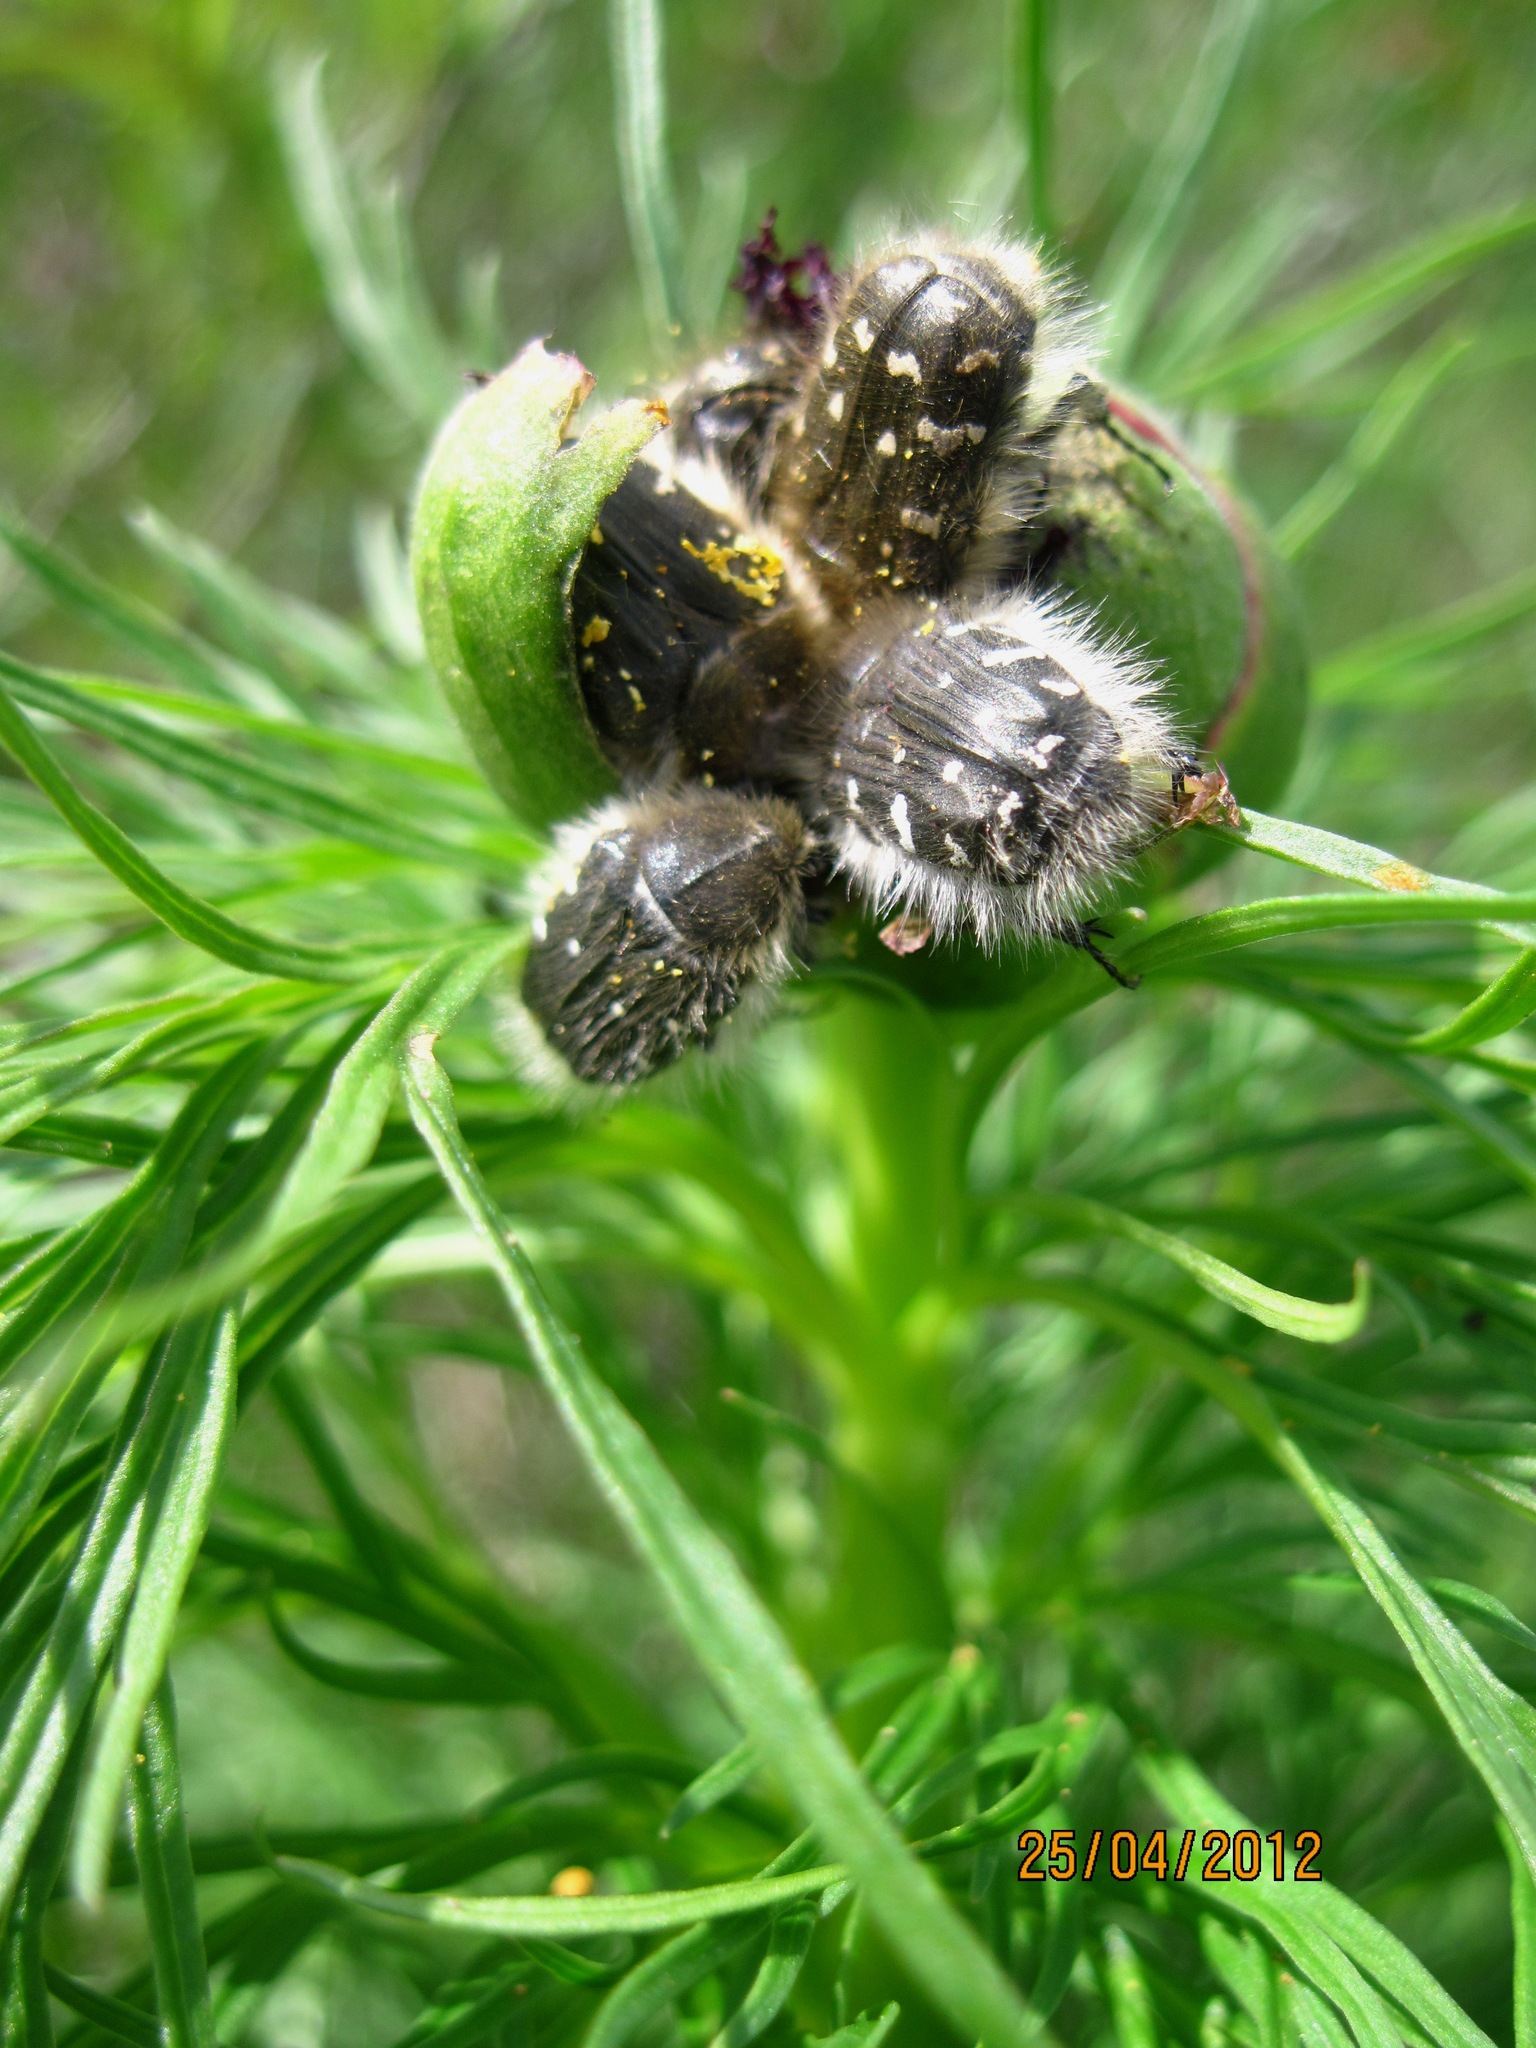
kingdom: Animalia
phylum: Arthropoda
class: Insecta
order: Coleoptera
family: Scarabaeidae
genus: Tropinota
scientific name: Tropinota hirta
